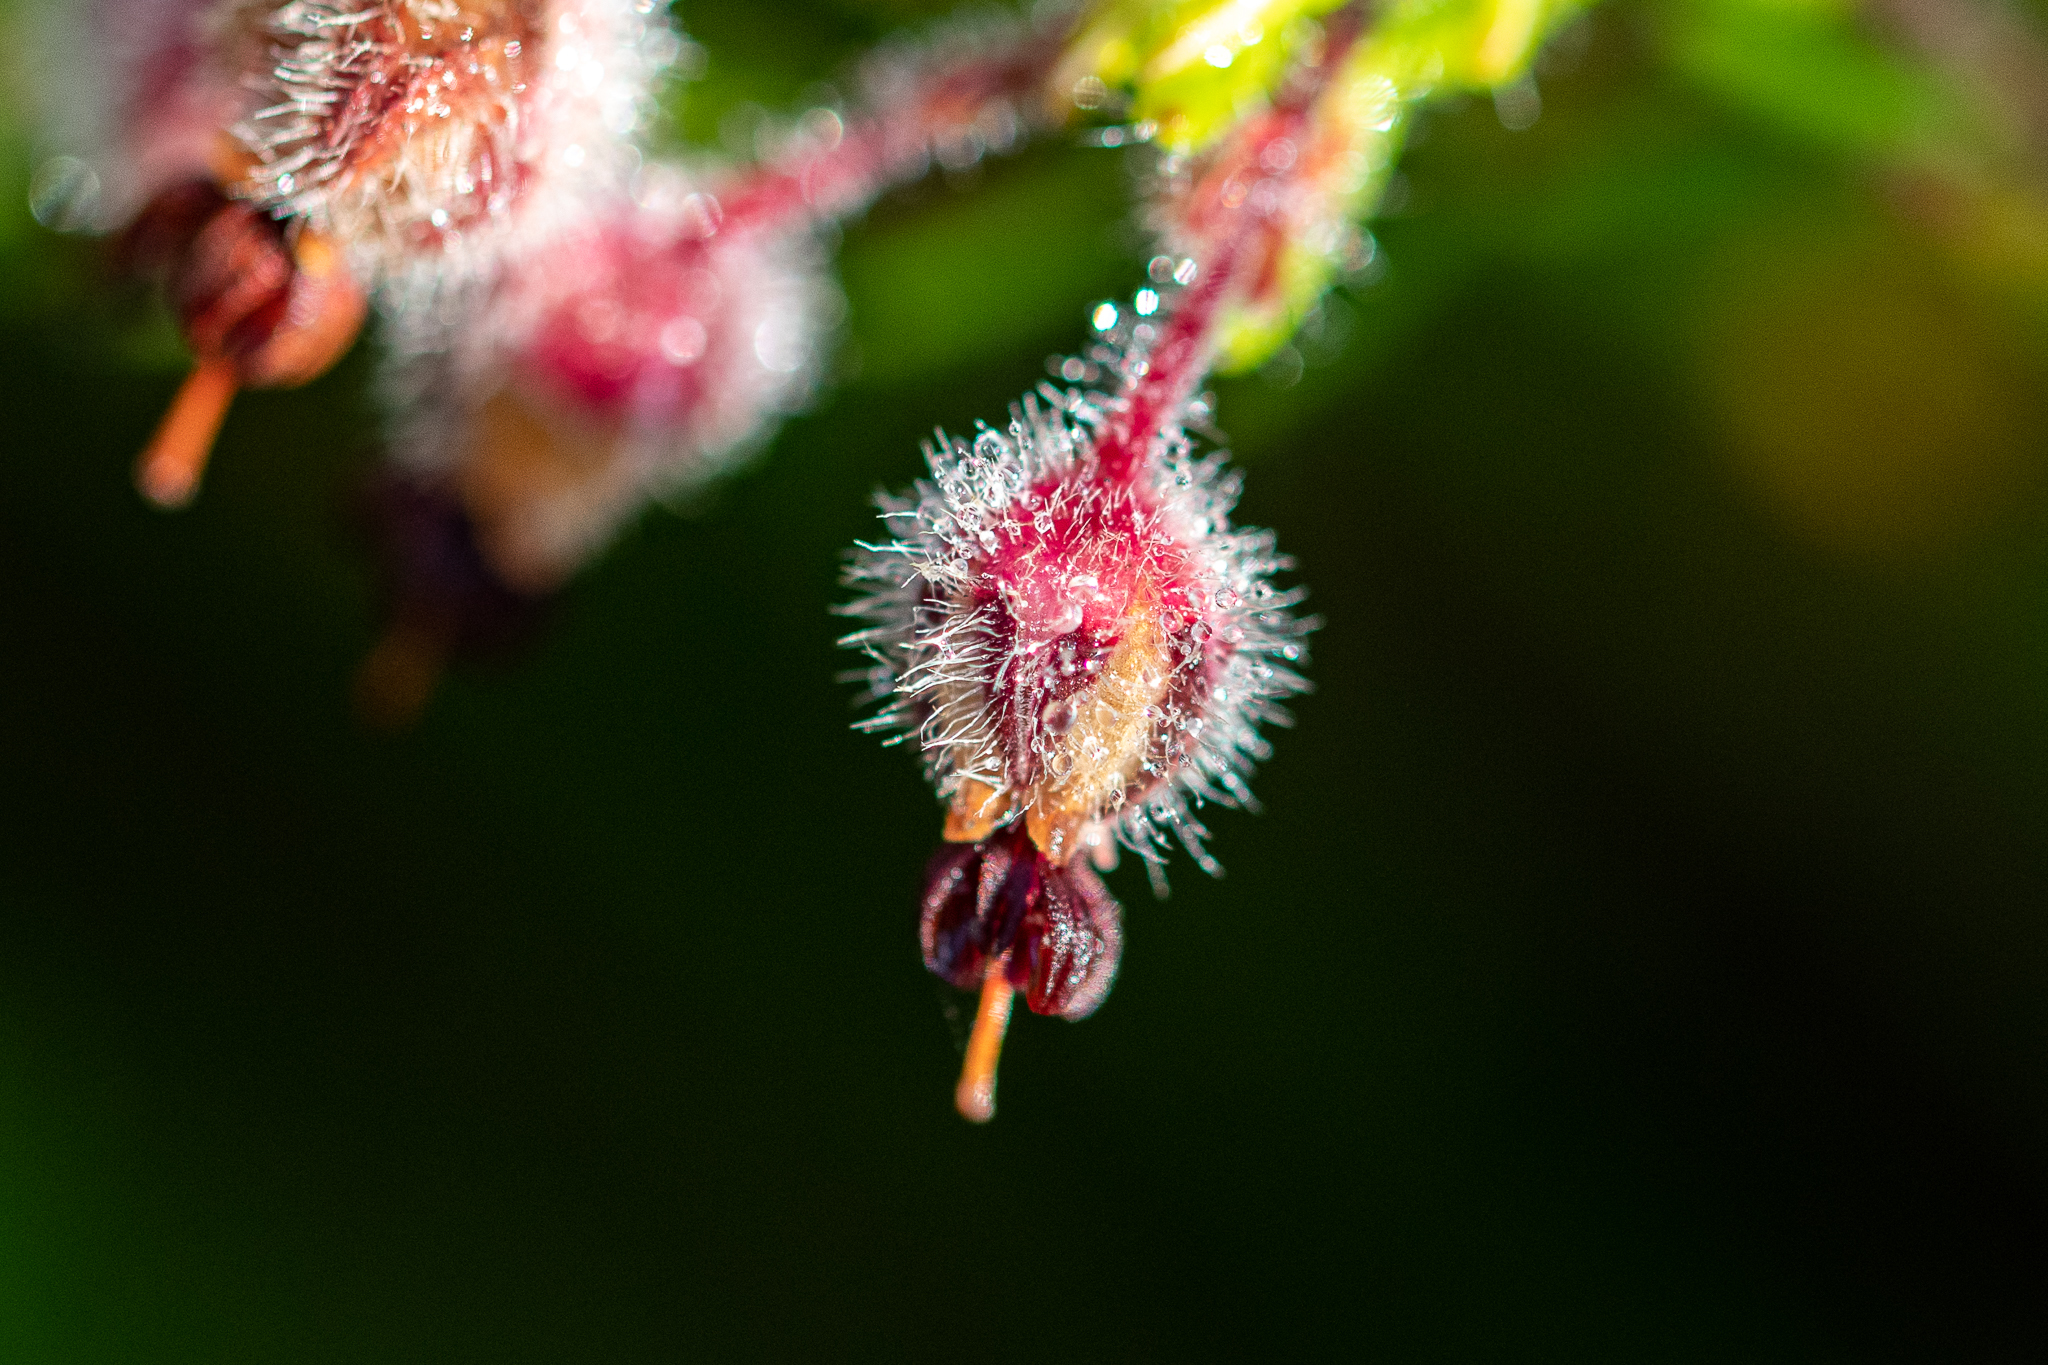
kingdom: Plantae
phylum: Tracheophyta
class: Magnoliopsida
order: Ericales
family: Ericaceae
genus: Erica
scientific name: Erica bruniades
